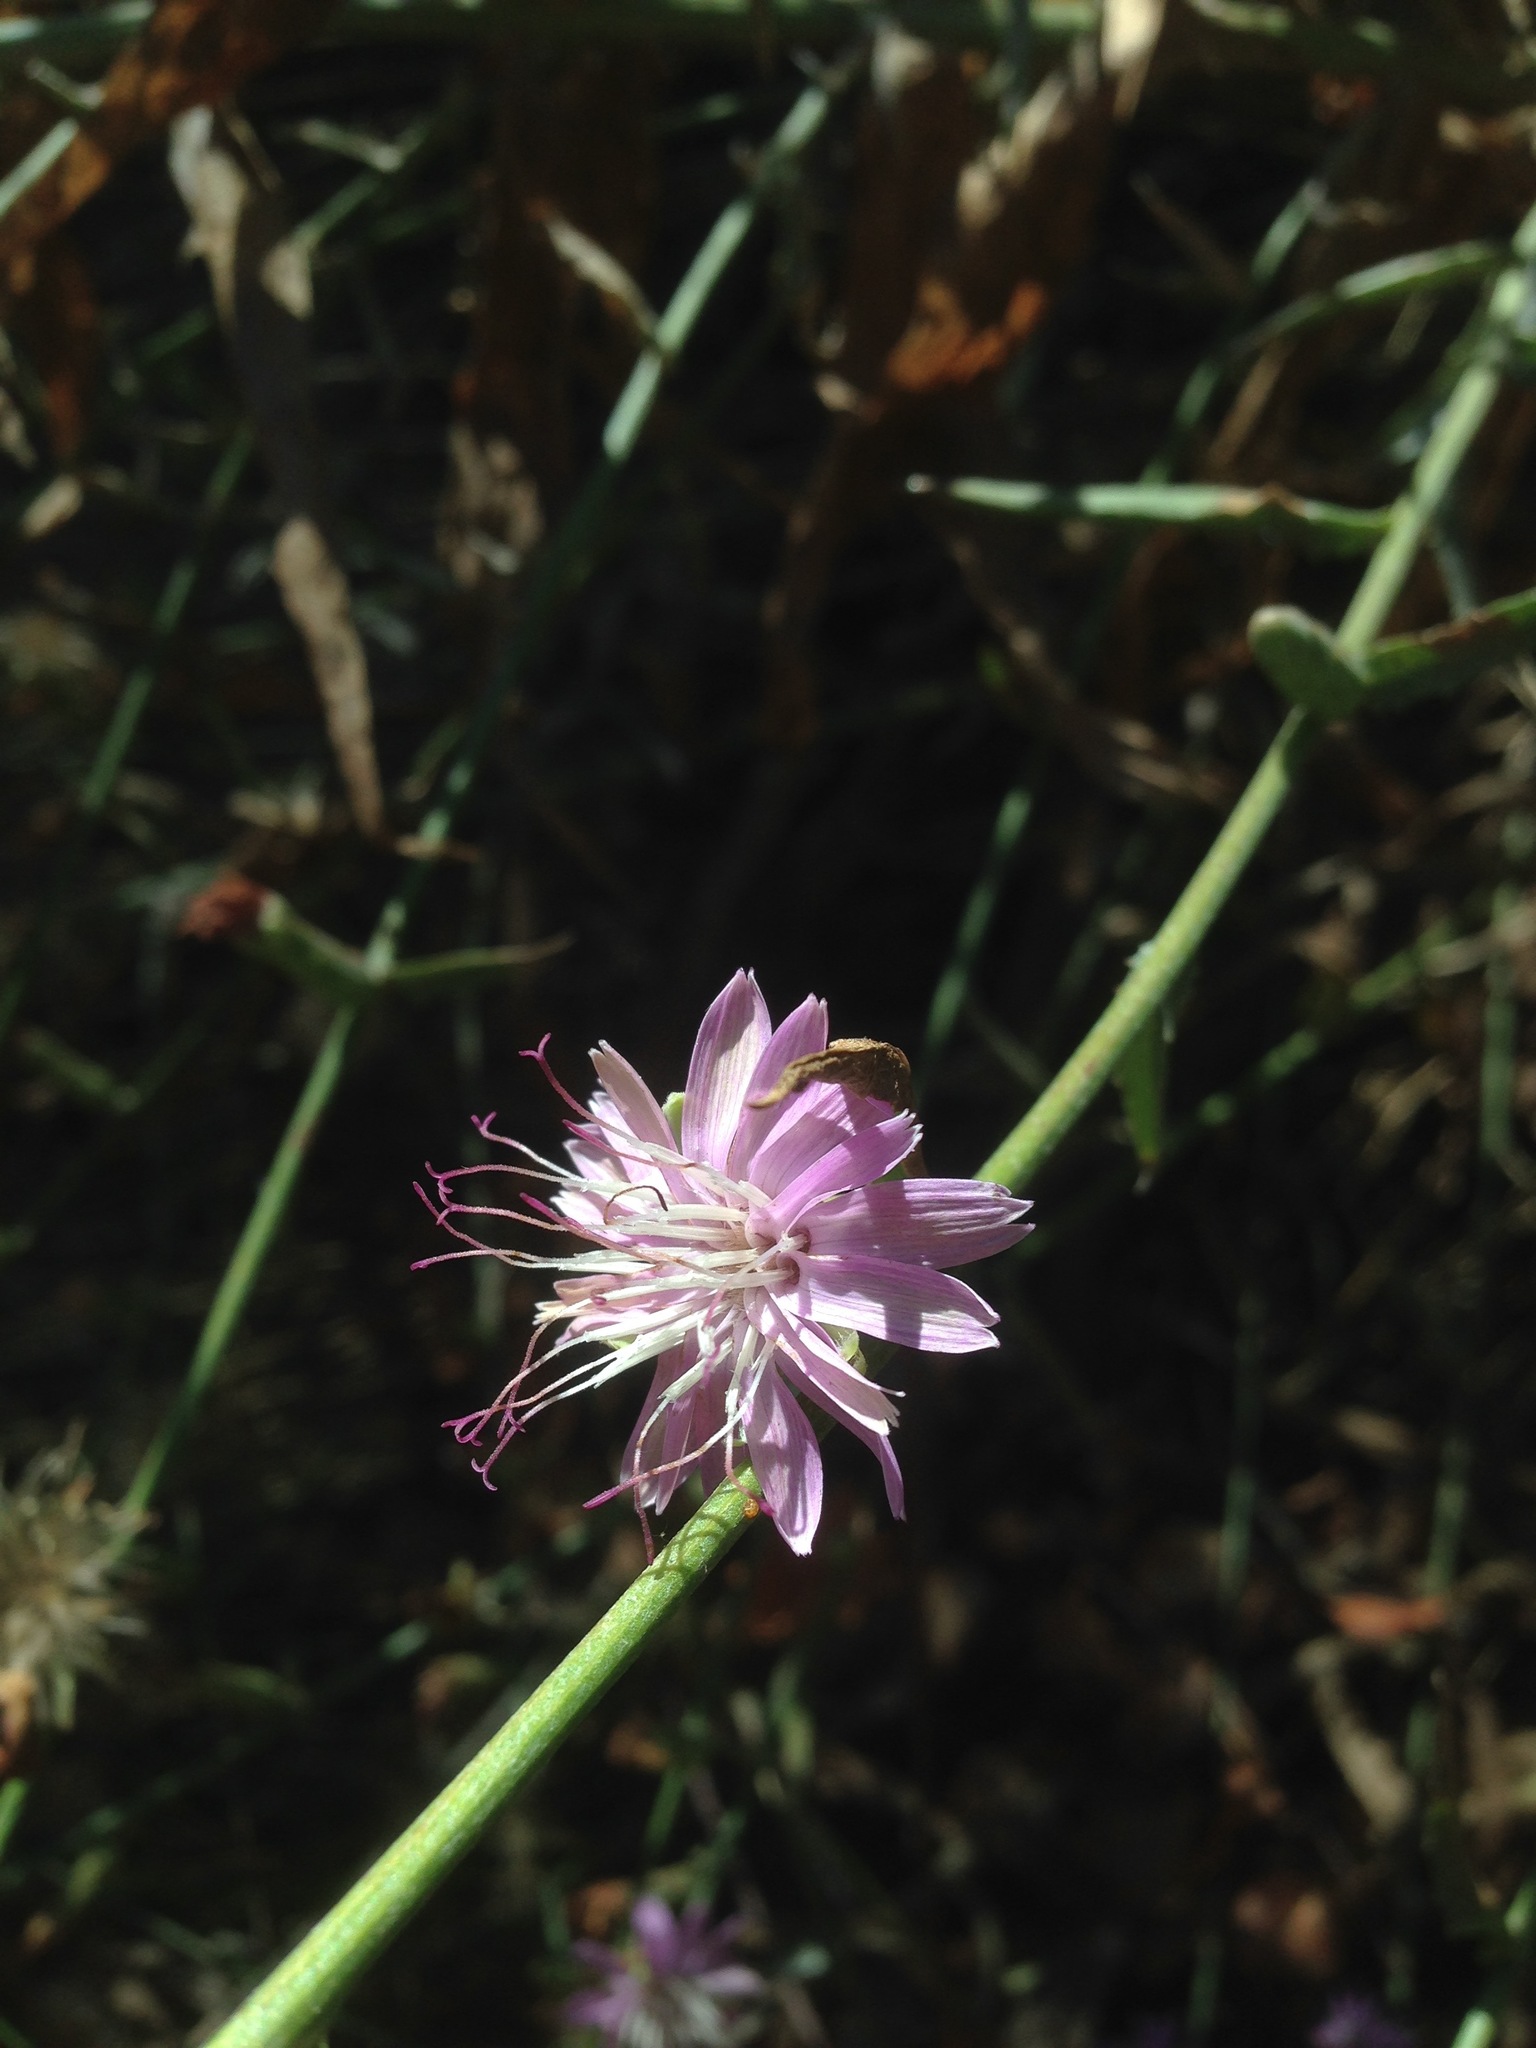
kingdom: Plantae
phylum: Tracheophyta
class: Magnoliopsida
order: Asterales
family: Asteraceae
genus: Stephanomeria
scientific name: Stephanomeria cichoriacea
